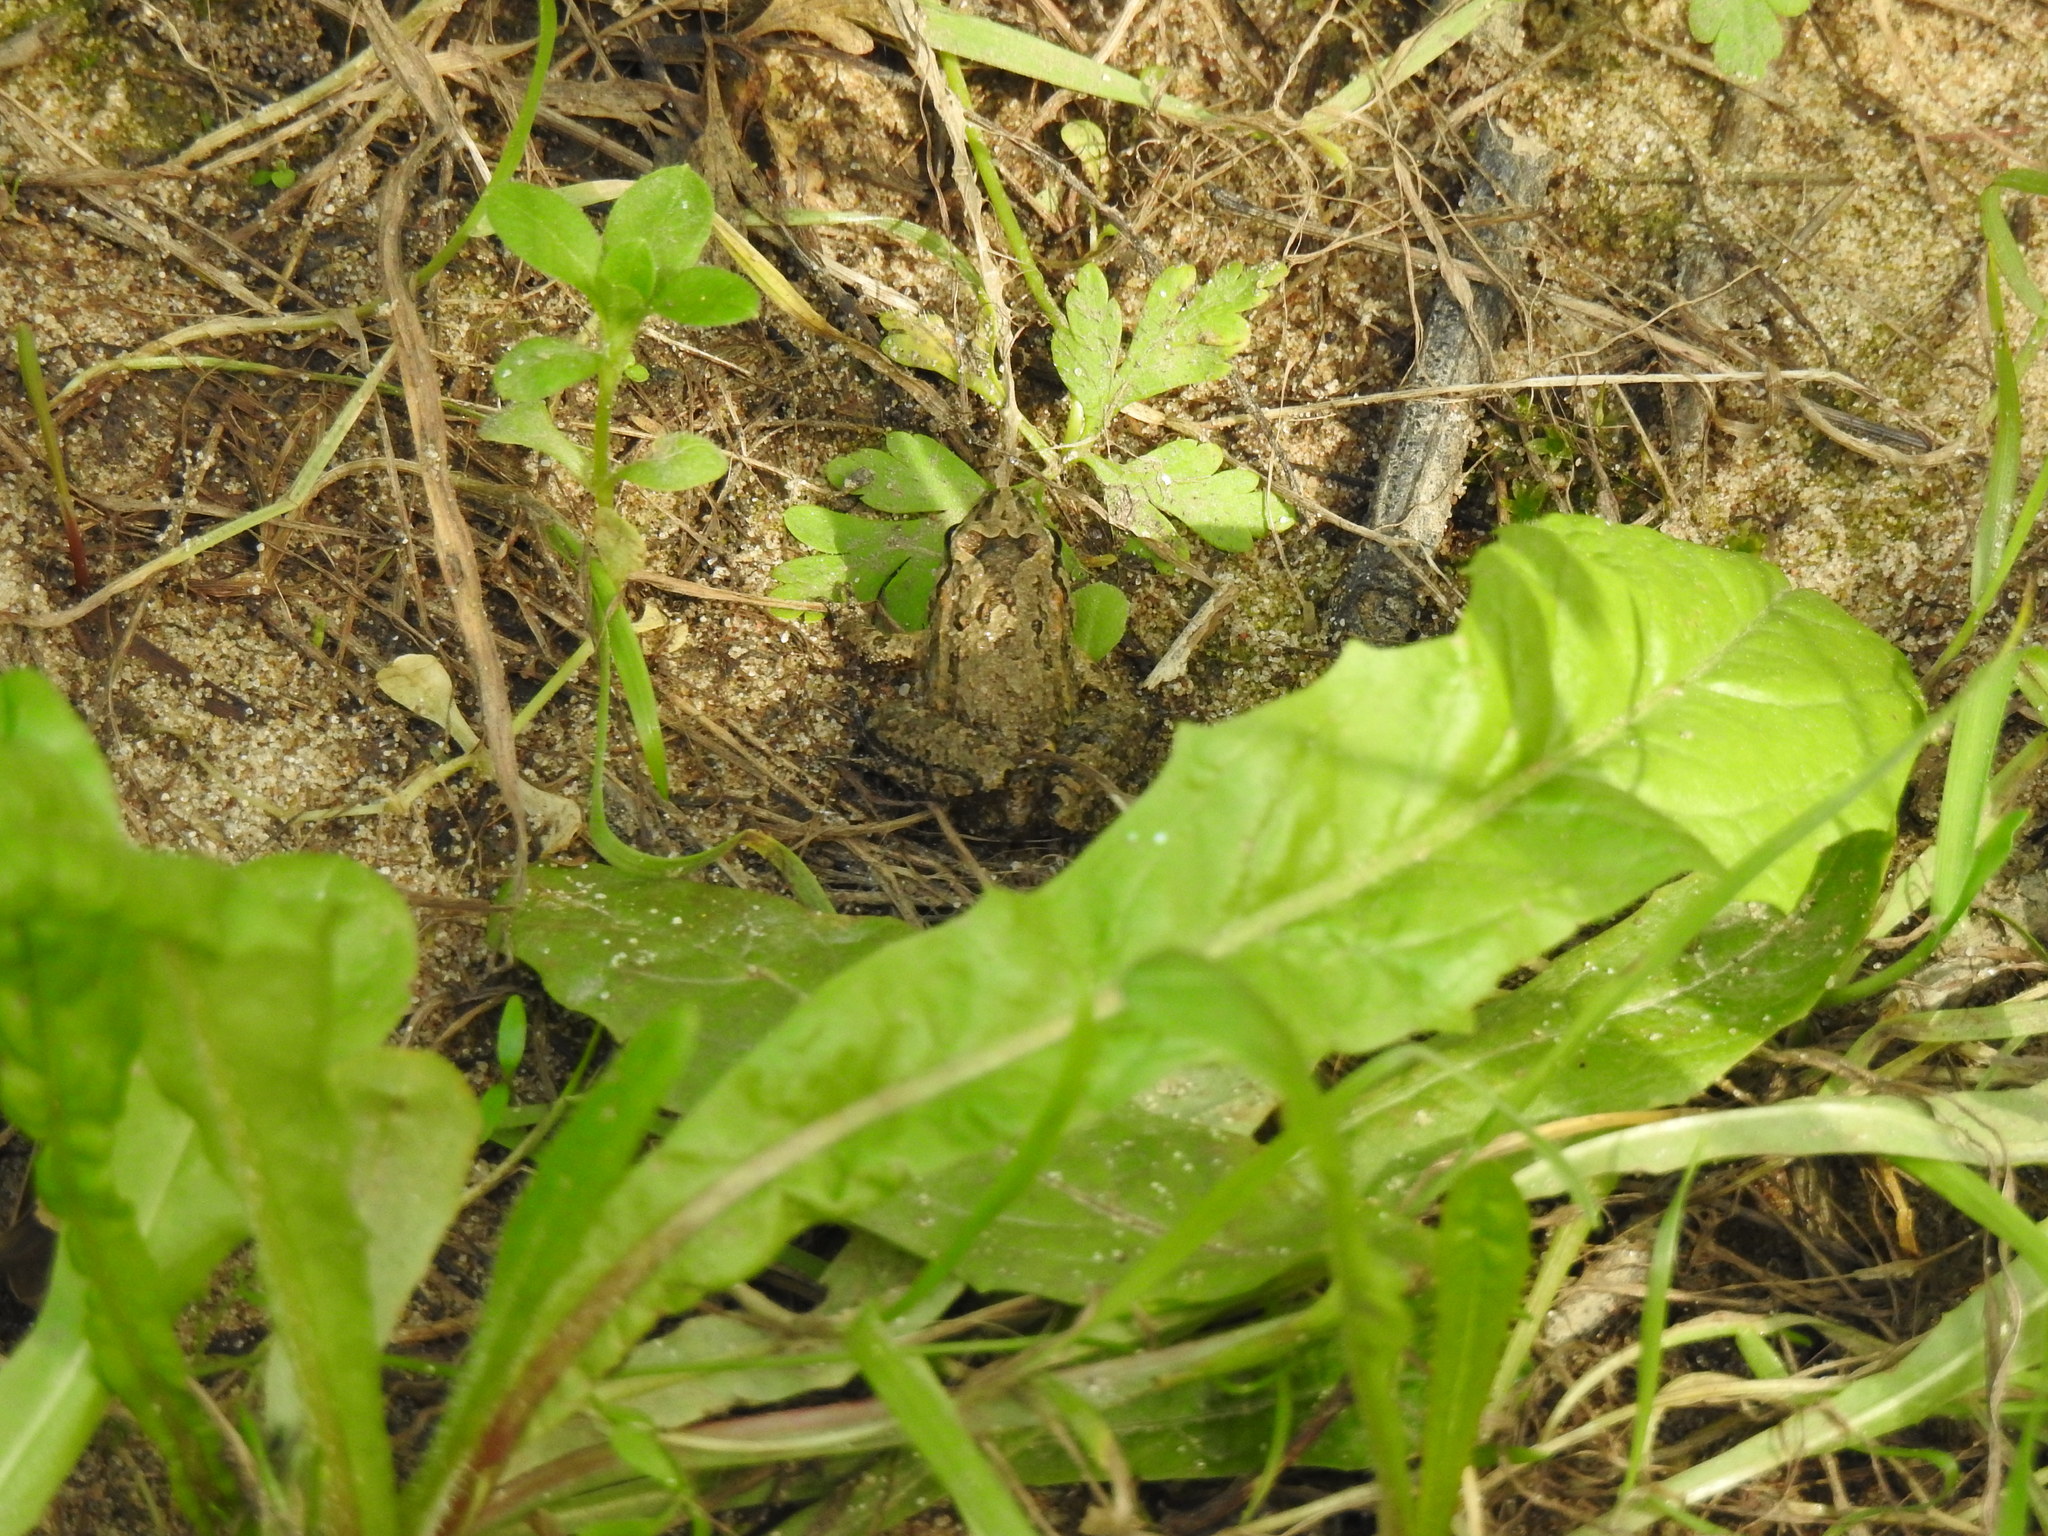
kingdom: Animalia
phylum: Chordata
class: Amphibia
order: Anura
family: Alytidae
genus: Discoglossus
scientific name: Discoglossus galganoi
